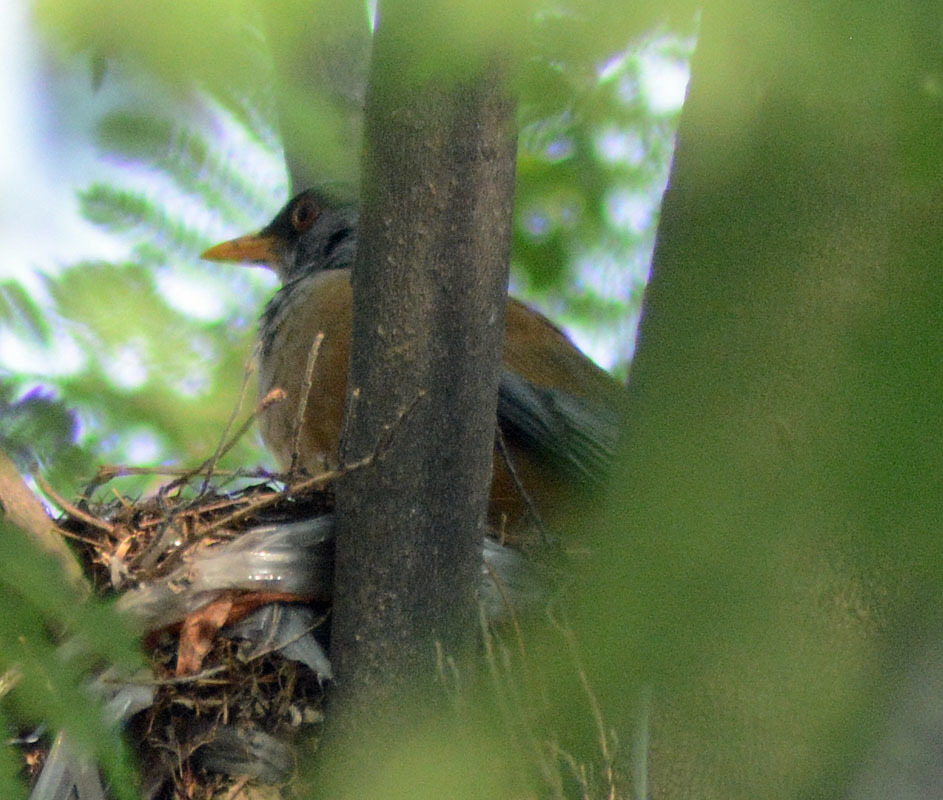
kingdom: Animalia
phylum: Chordata
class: Aves
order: Passeriformes
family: Turdidae
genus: Turdus
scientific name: Turdus rufopalliatus
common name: Rufous-backed robin
